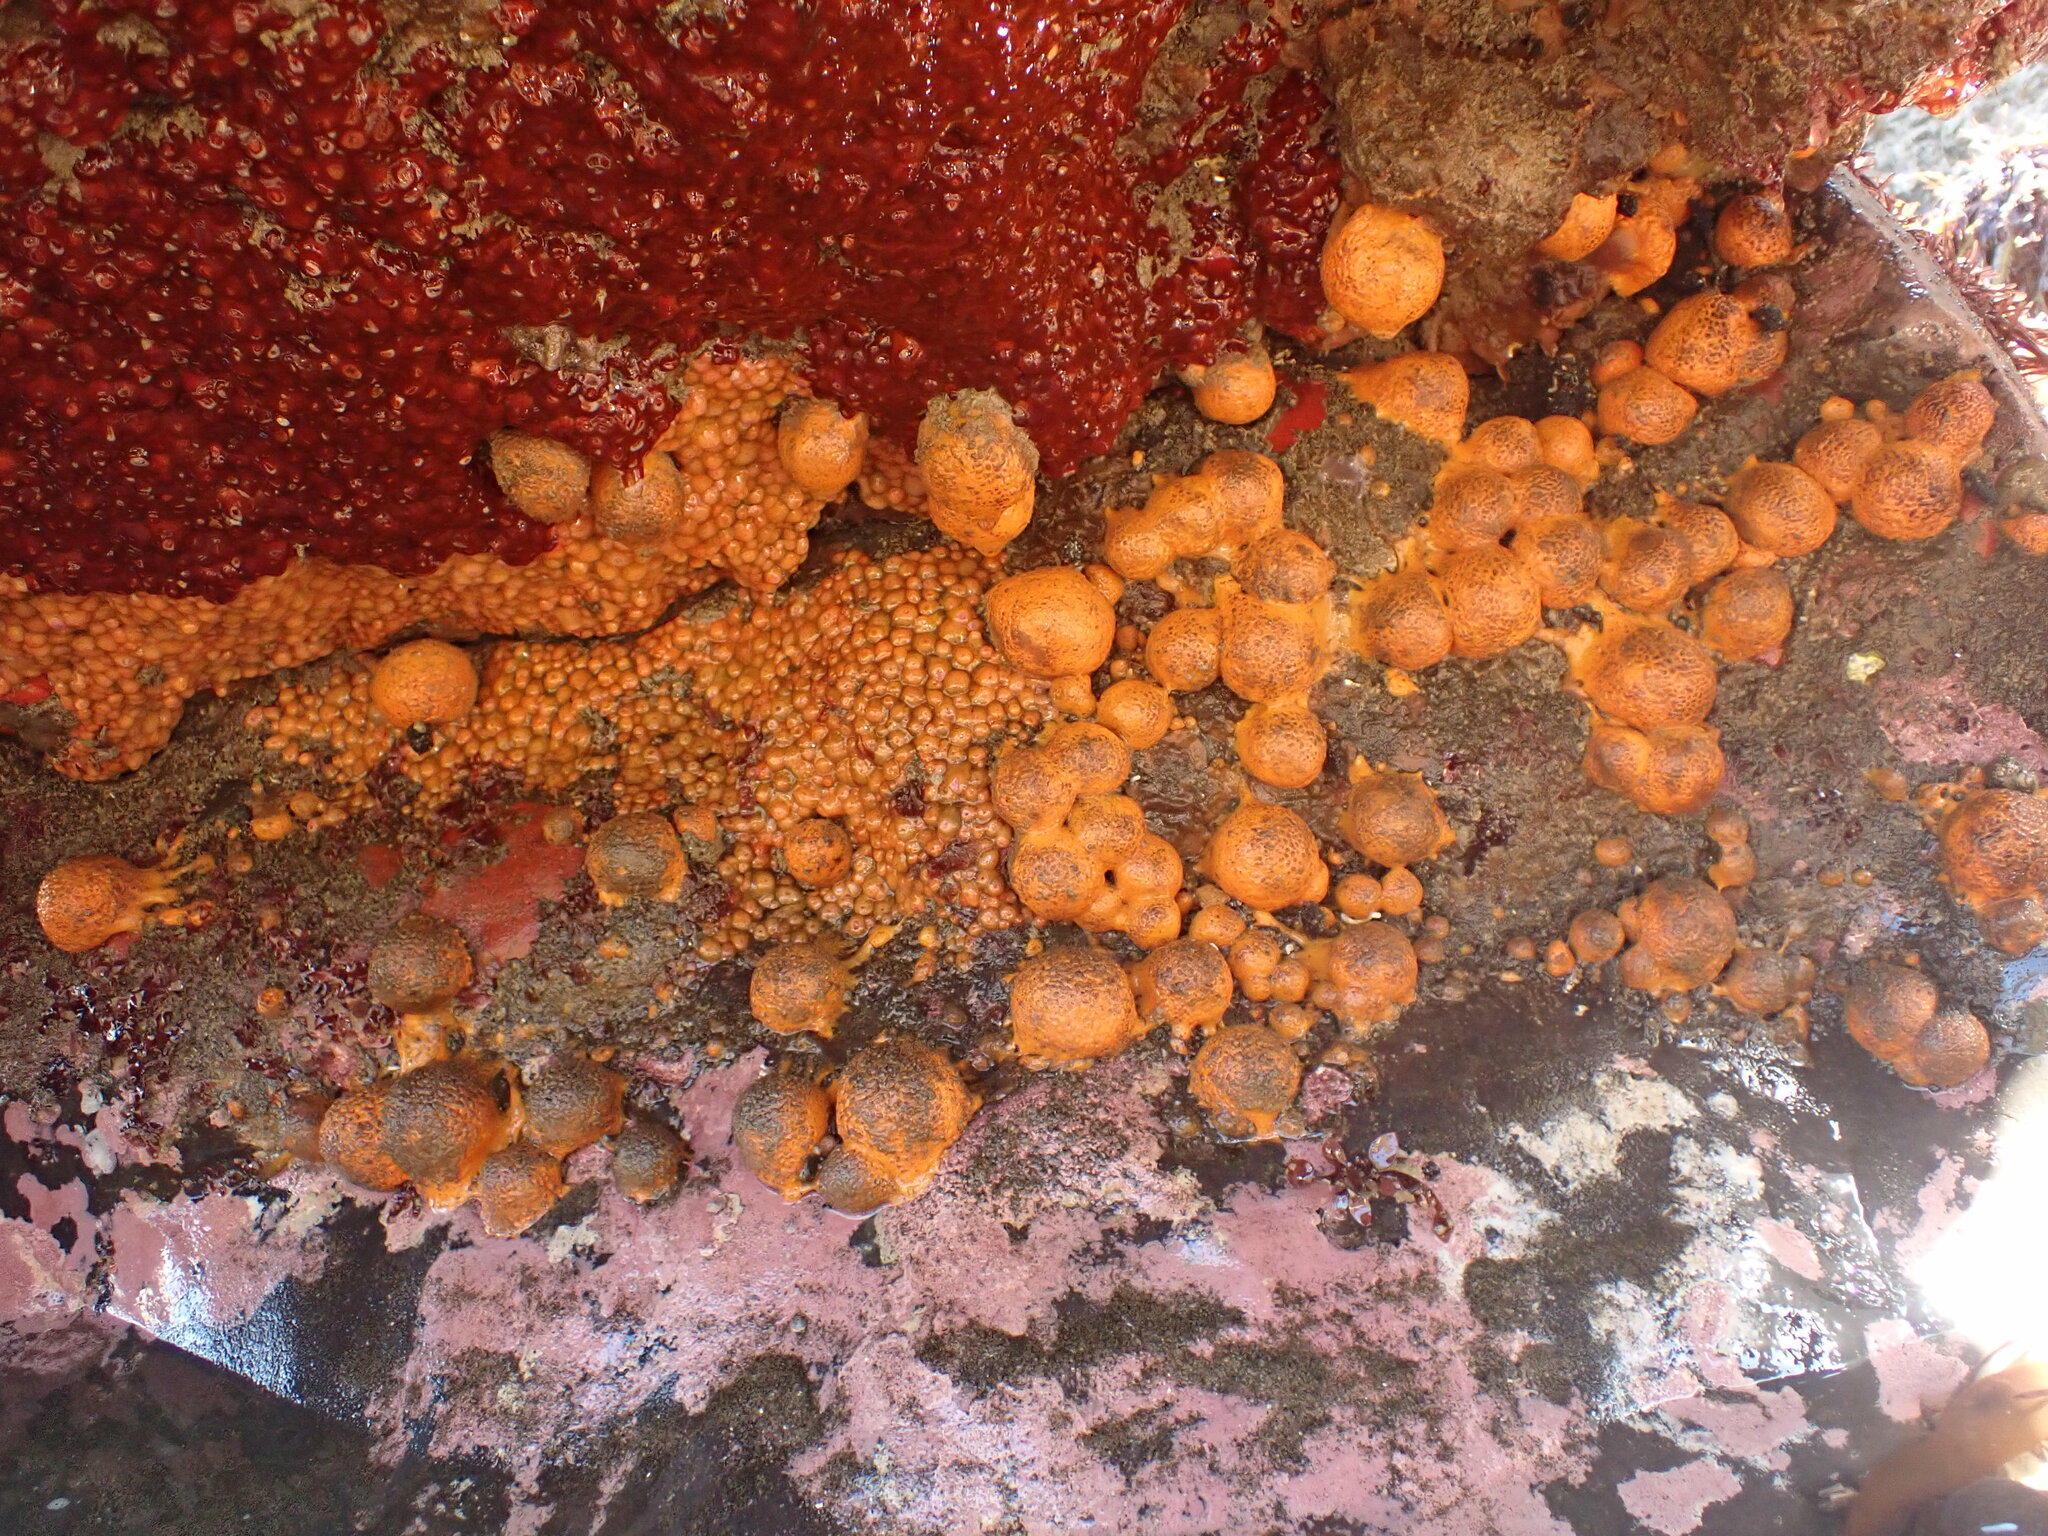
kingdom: Animalia
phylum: Porifera
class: Demospongiae
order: Tethyida
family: Tethyidae
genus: Tethya
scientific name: Tethya burtoni
